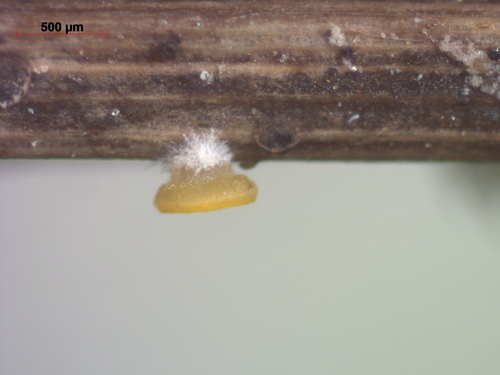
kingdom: Fungi
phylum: Ascomycota
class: Leotiomycetes
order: Helotiales
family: Pezizellaceae
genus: Calycellina
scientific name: Calycellina
